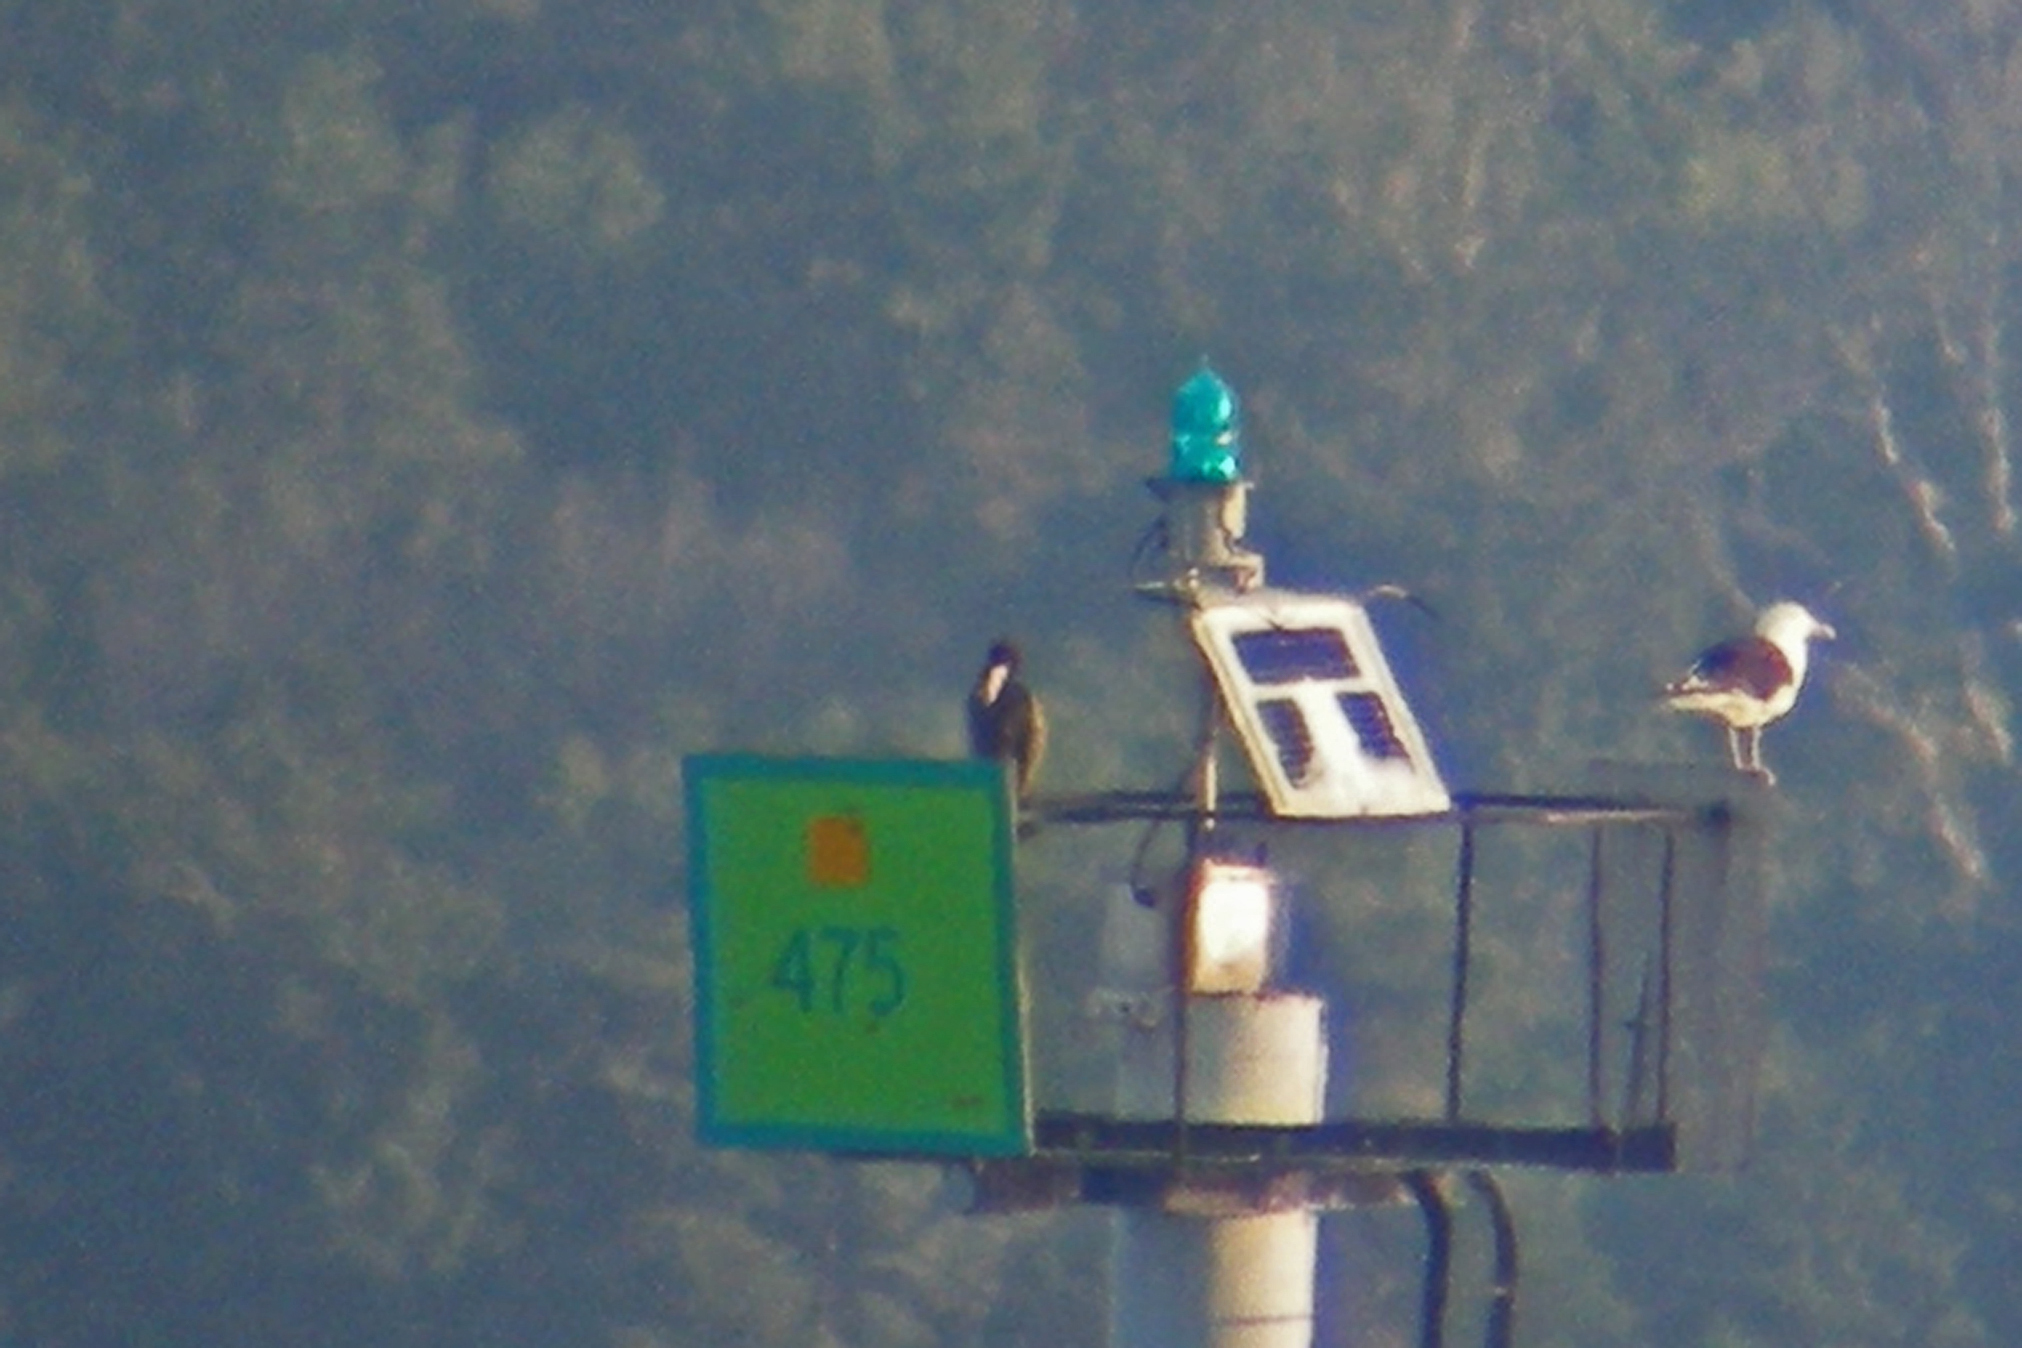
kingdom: Animalia
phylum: Chordata
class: Aves
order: Suliformes
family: Sulidae
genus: Sula
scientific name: Sula leucogaster
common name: Brown booby
